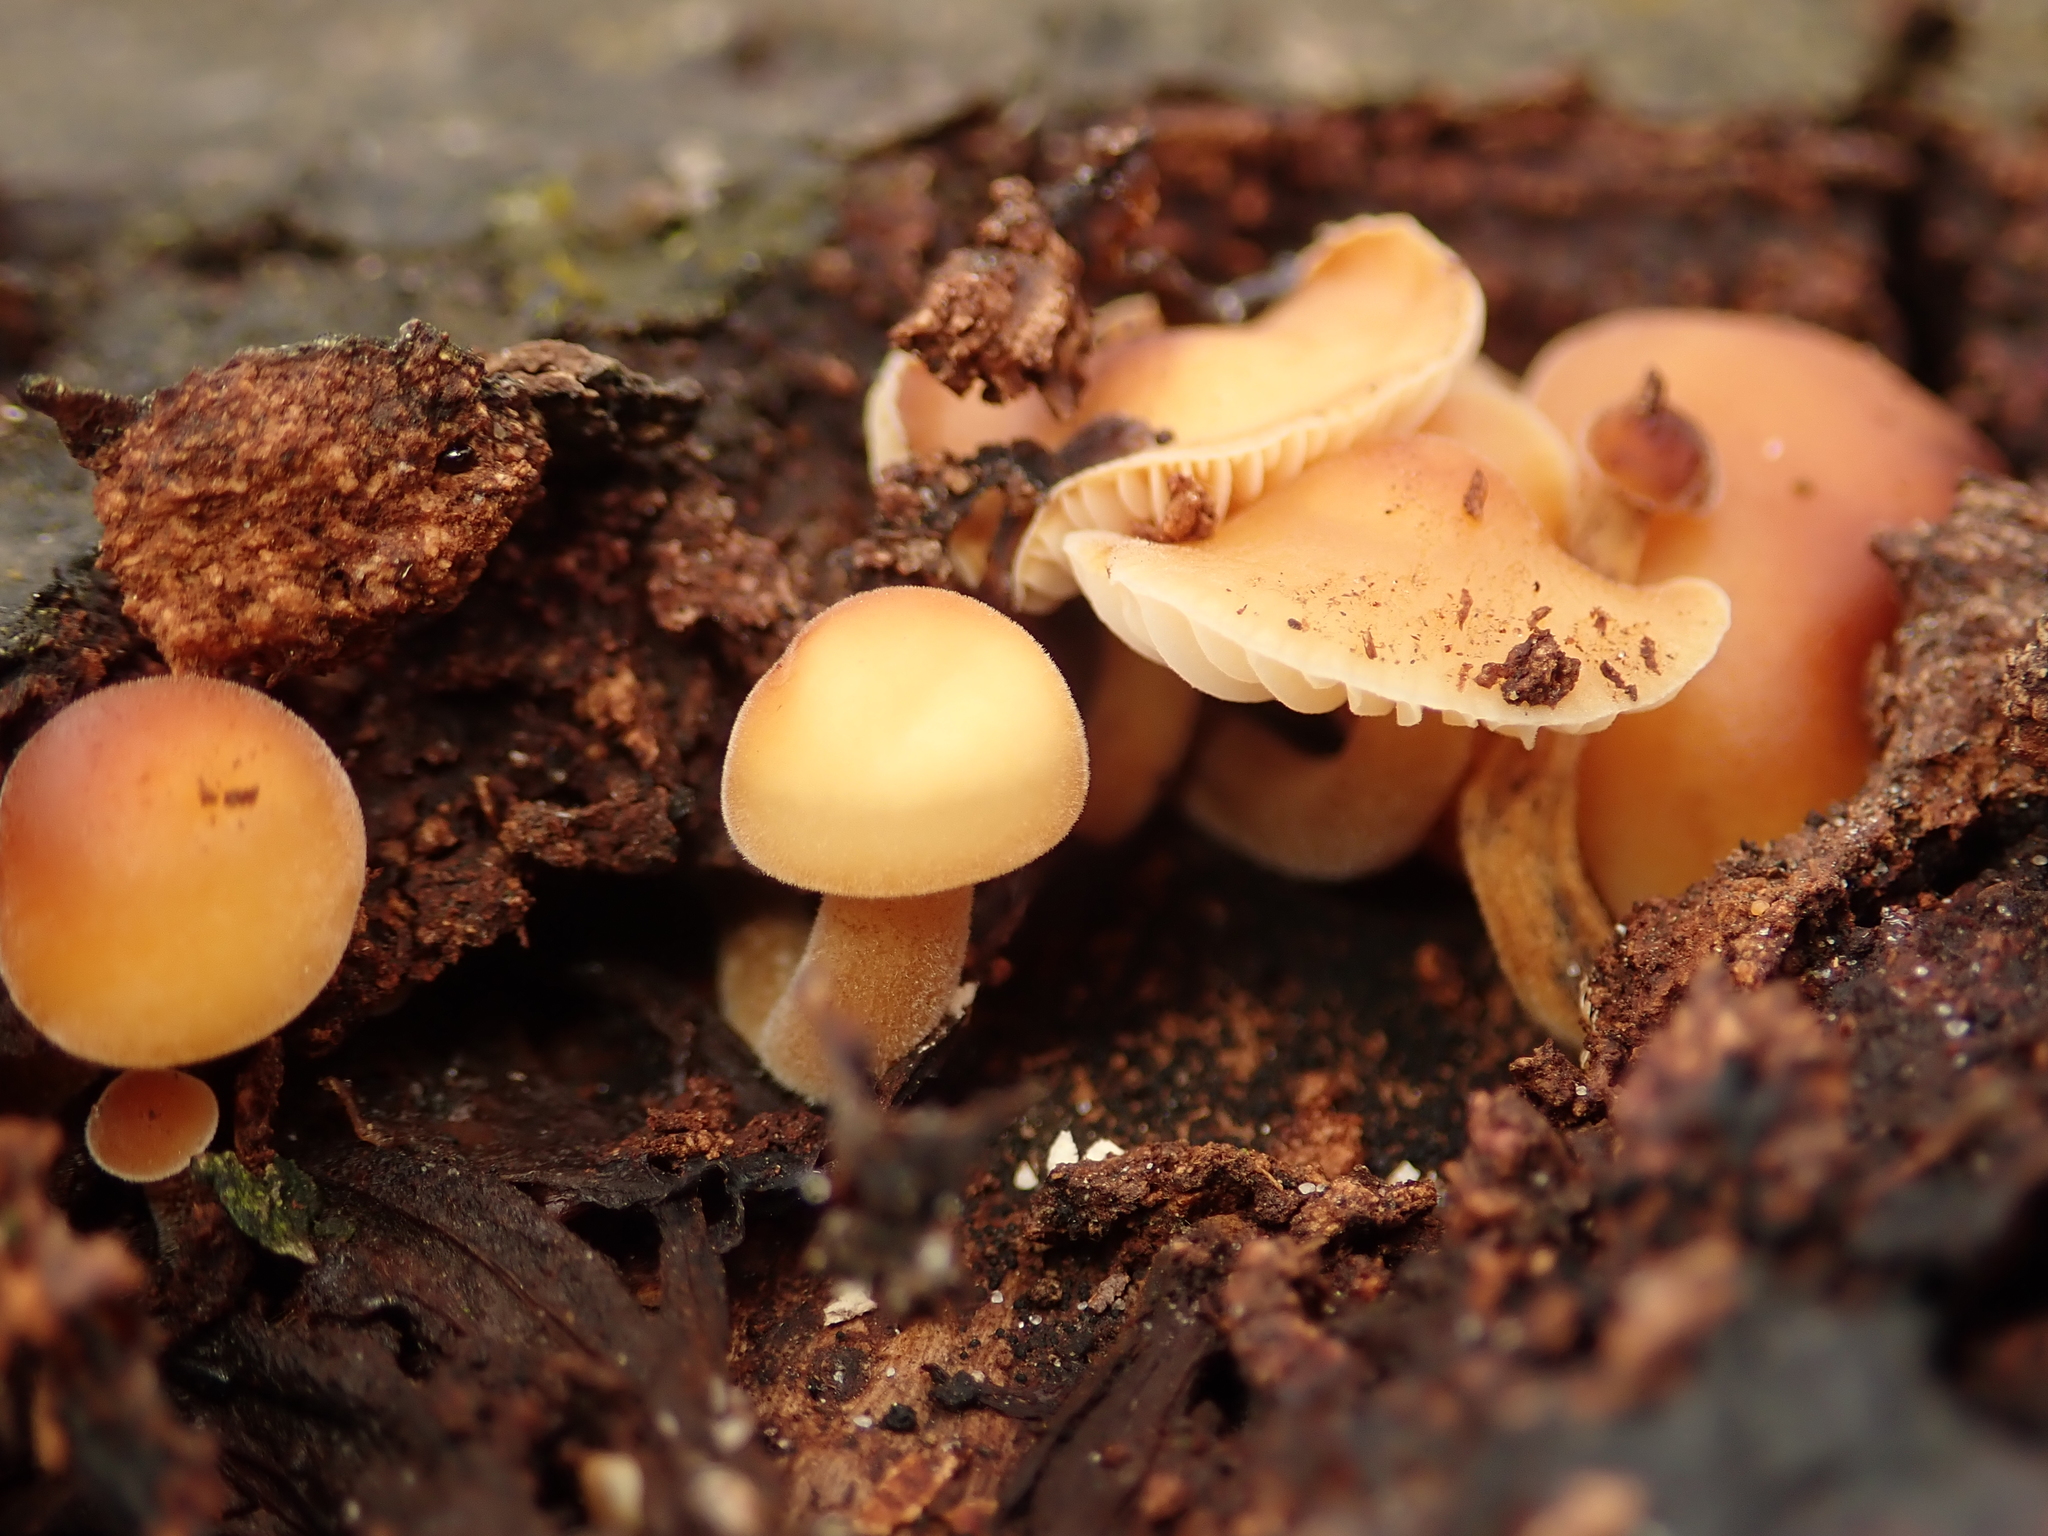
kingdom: Fungi
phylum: Basidiomycota
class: Agaricomycetes
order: Agaricales
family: Physalacriaceae
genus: Flammulina
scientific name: Flammulina
